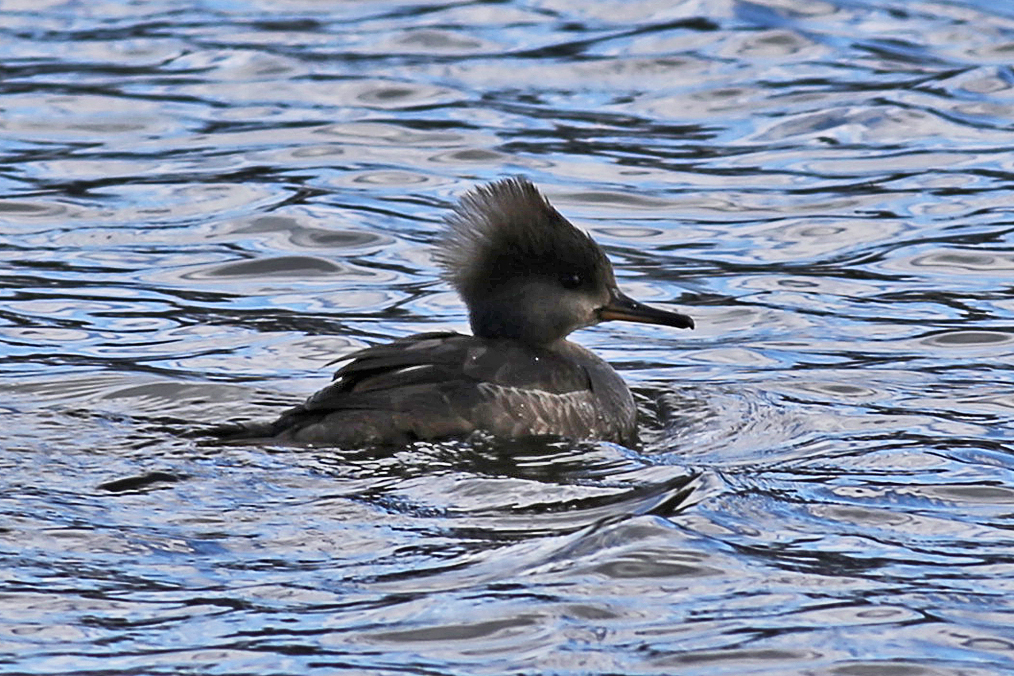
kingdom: Animalia
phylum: Chordata
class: Aves
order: Anseriformes
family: Anatidae
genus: Lophodytes
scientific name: Lophodytes cucullatus
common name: Hooded merganser
